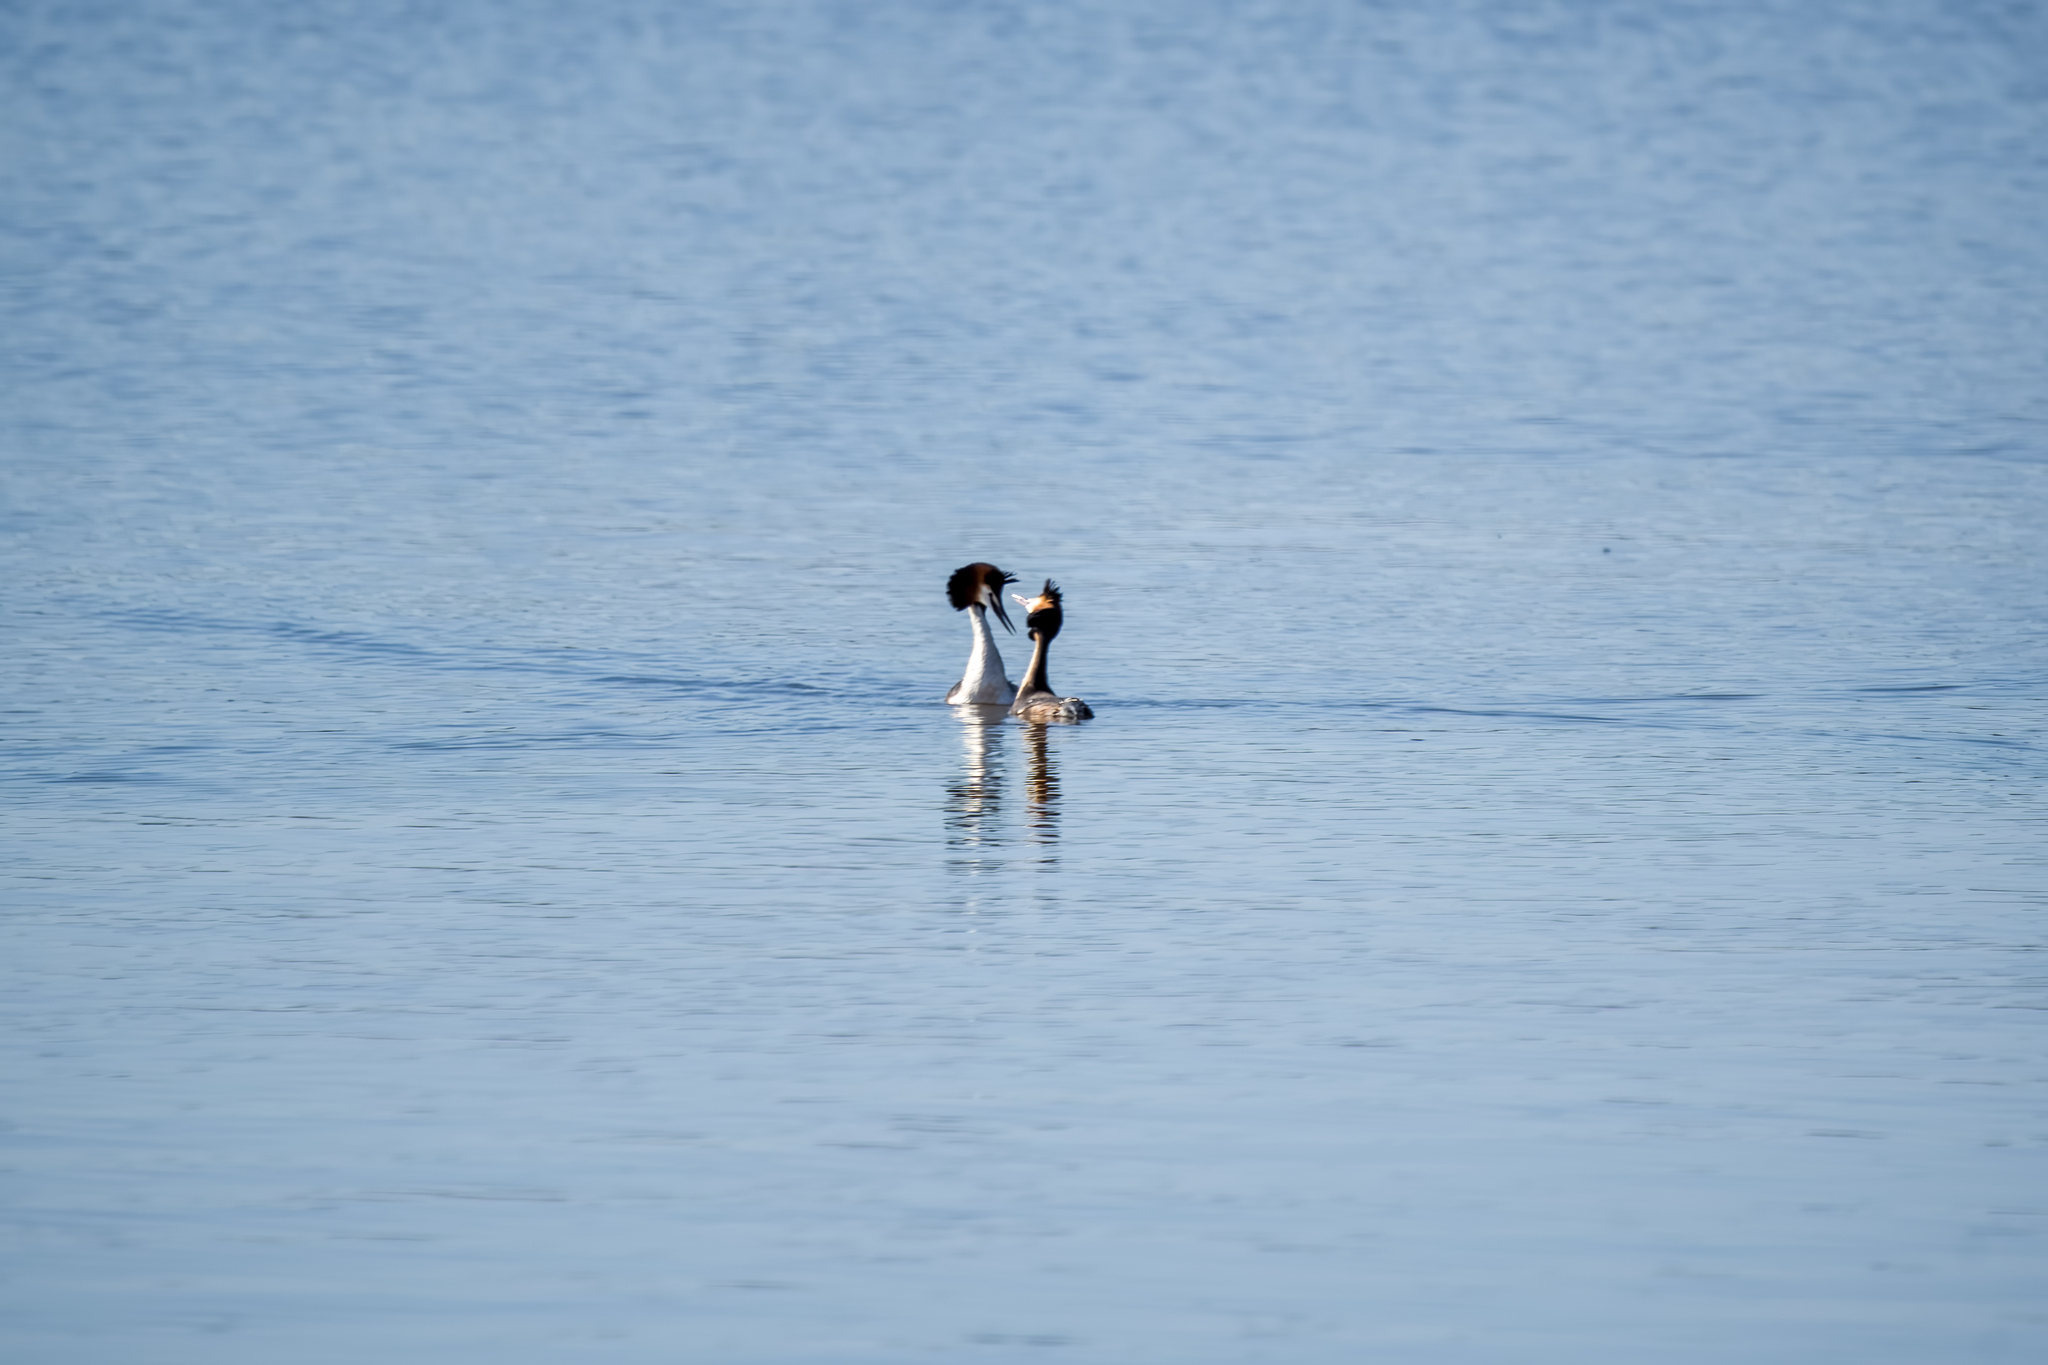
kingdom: Animalia
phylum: Chordata
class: Aves
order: Podicipediformes
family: Podicipedidae
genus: Podiceps
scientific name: Podiceps cristatus
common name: Great crested grebe
